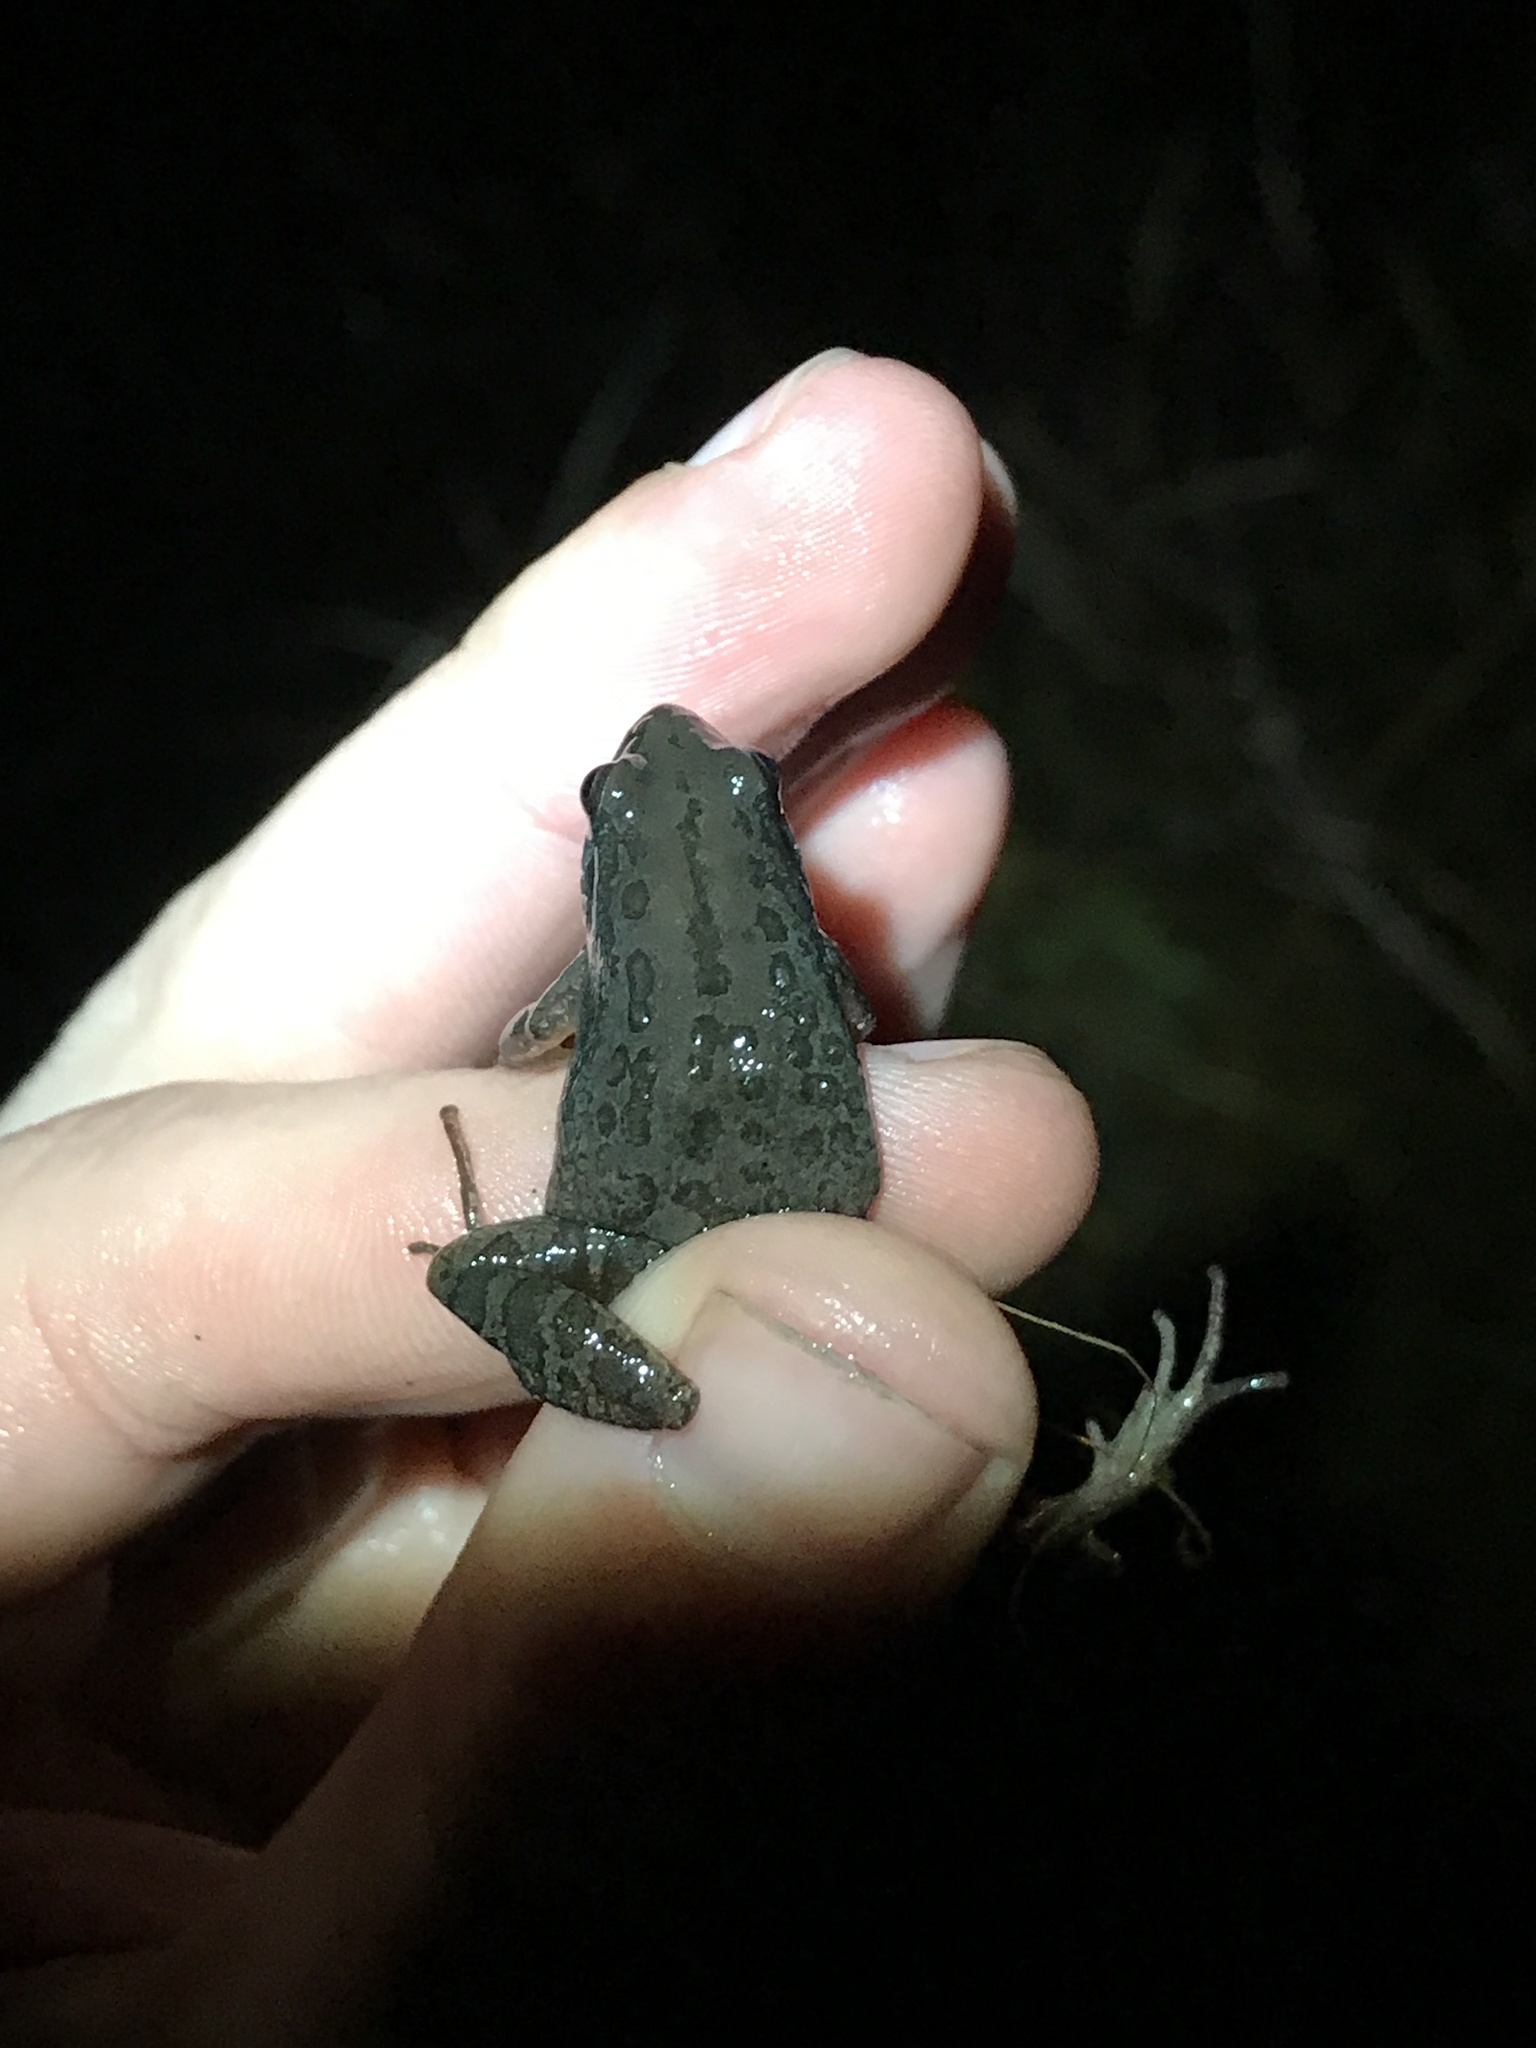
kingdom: Animalia
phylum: Chordata
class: Amphibia
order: Anura
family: Hylidae
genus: Pseudacris
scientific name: Pseudacris nigrita
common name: Southern chorus frog
